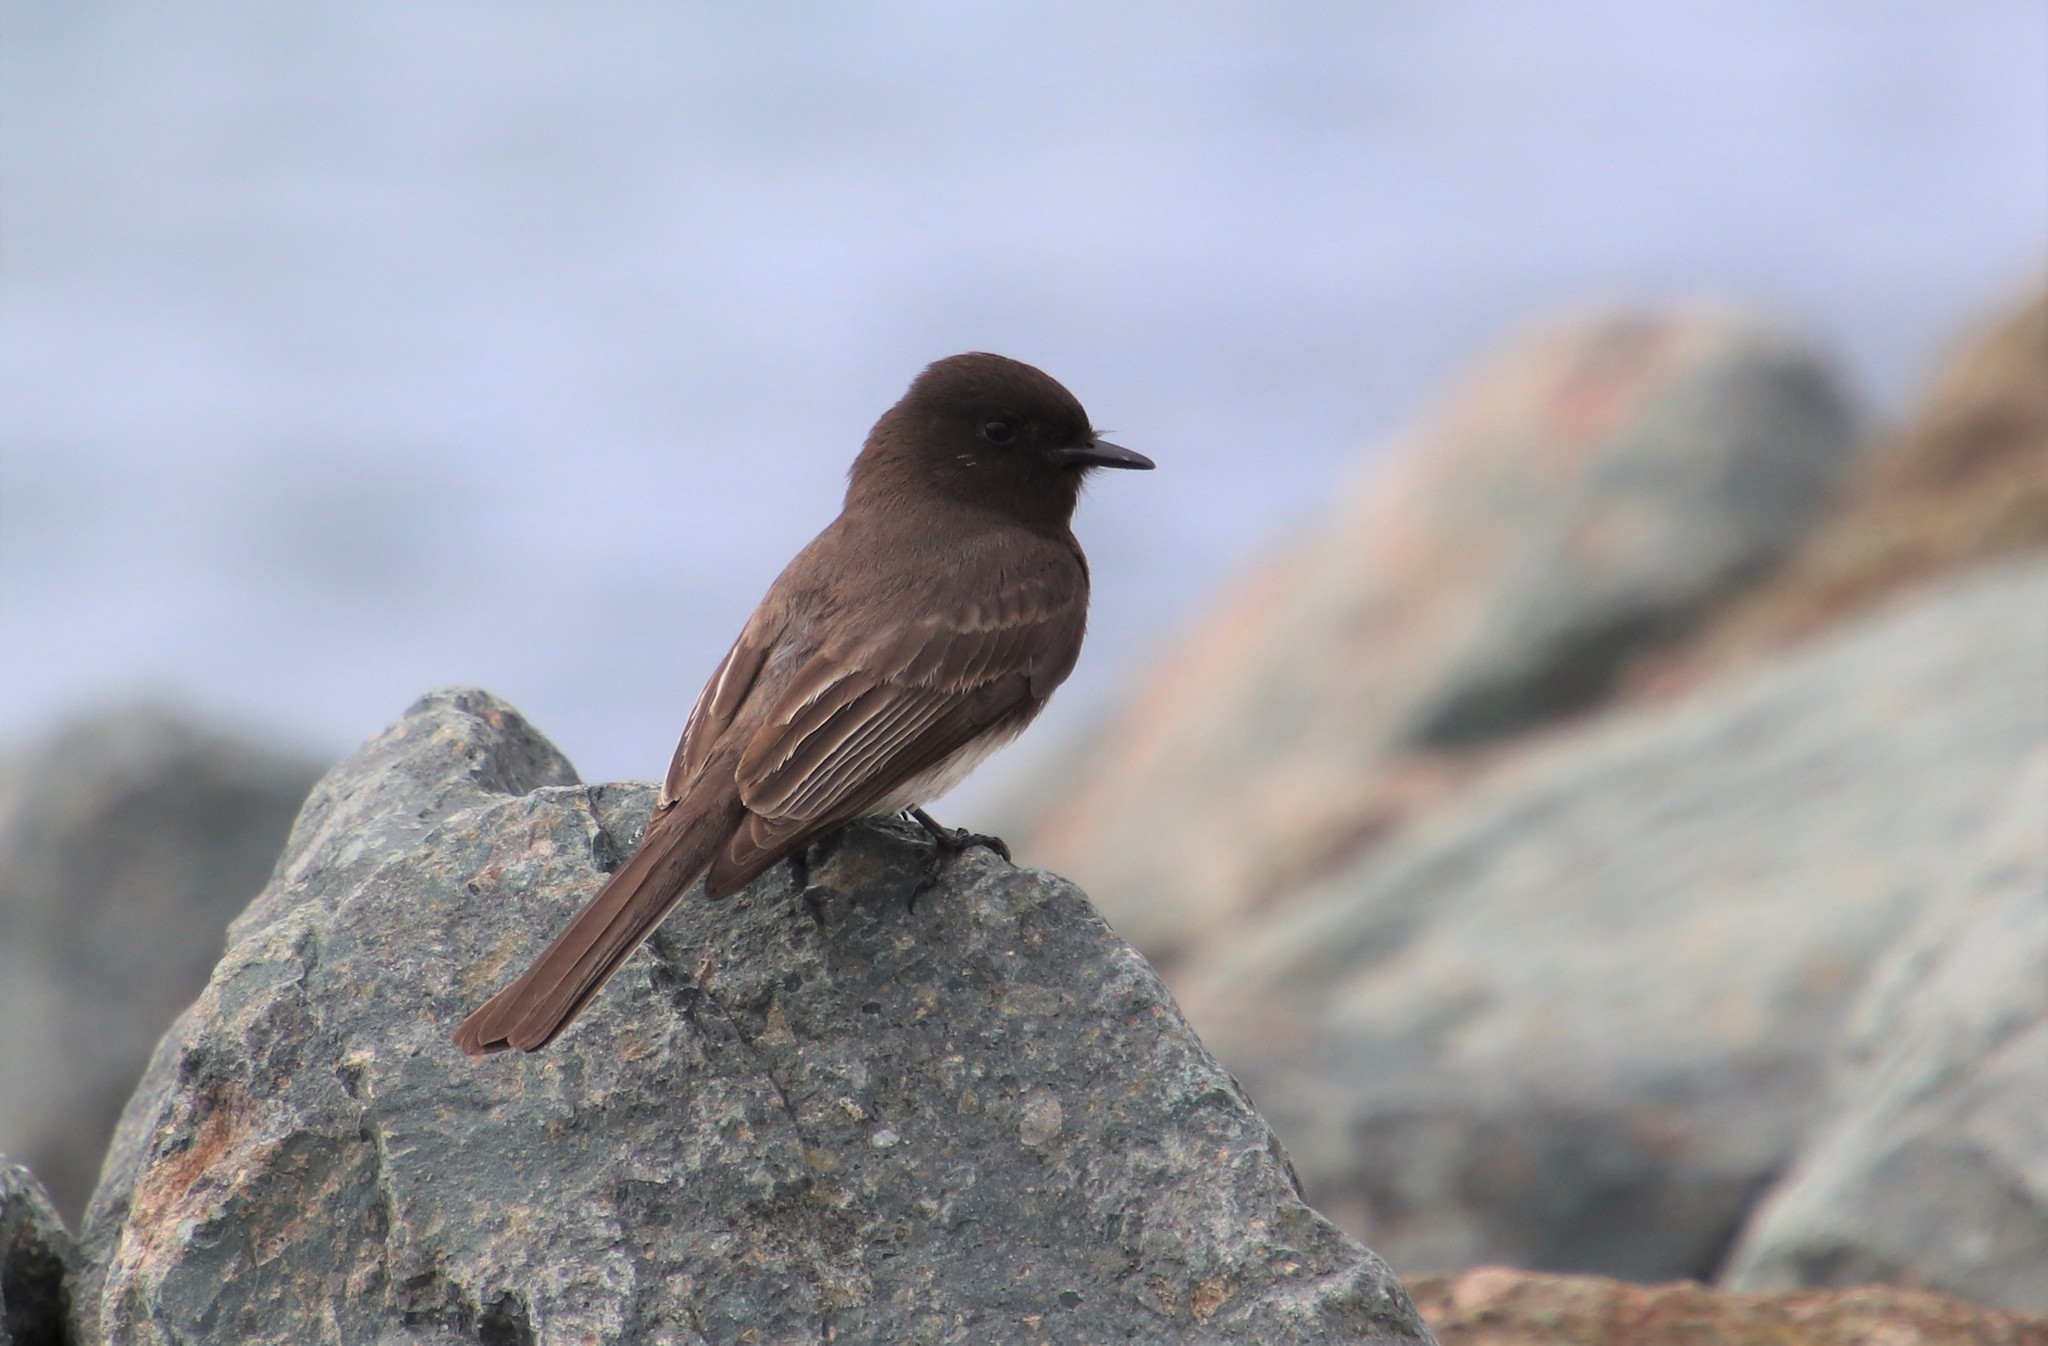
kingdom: Animalia
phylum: Chordata
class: Aves
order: Passeriformes
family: Tyrannidae
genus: Sayornis
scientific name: Sayornis nigricans
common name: Black phoebe
